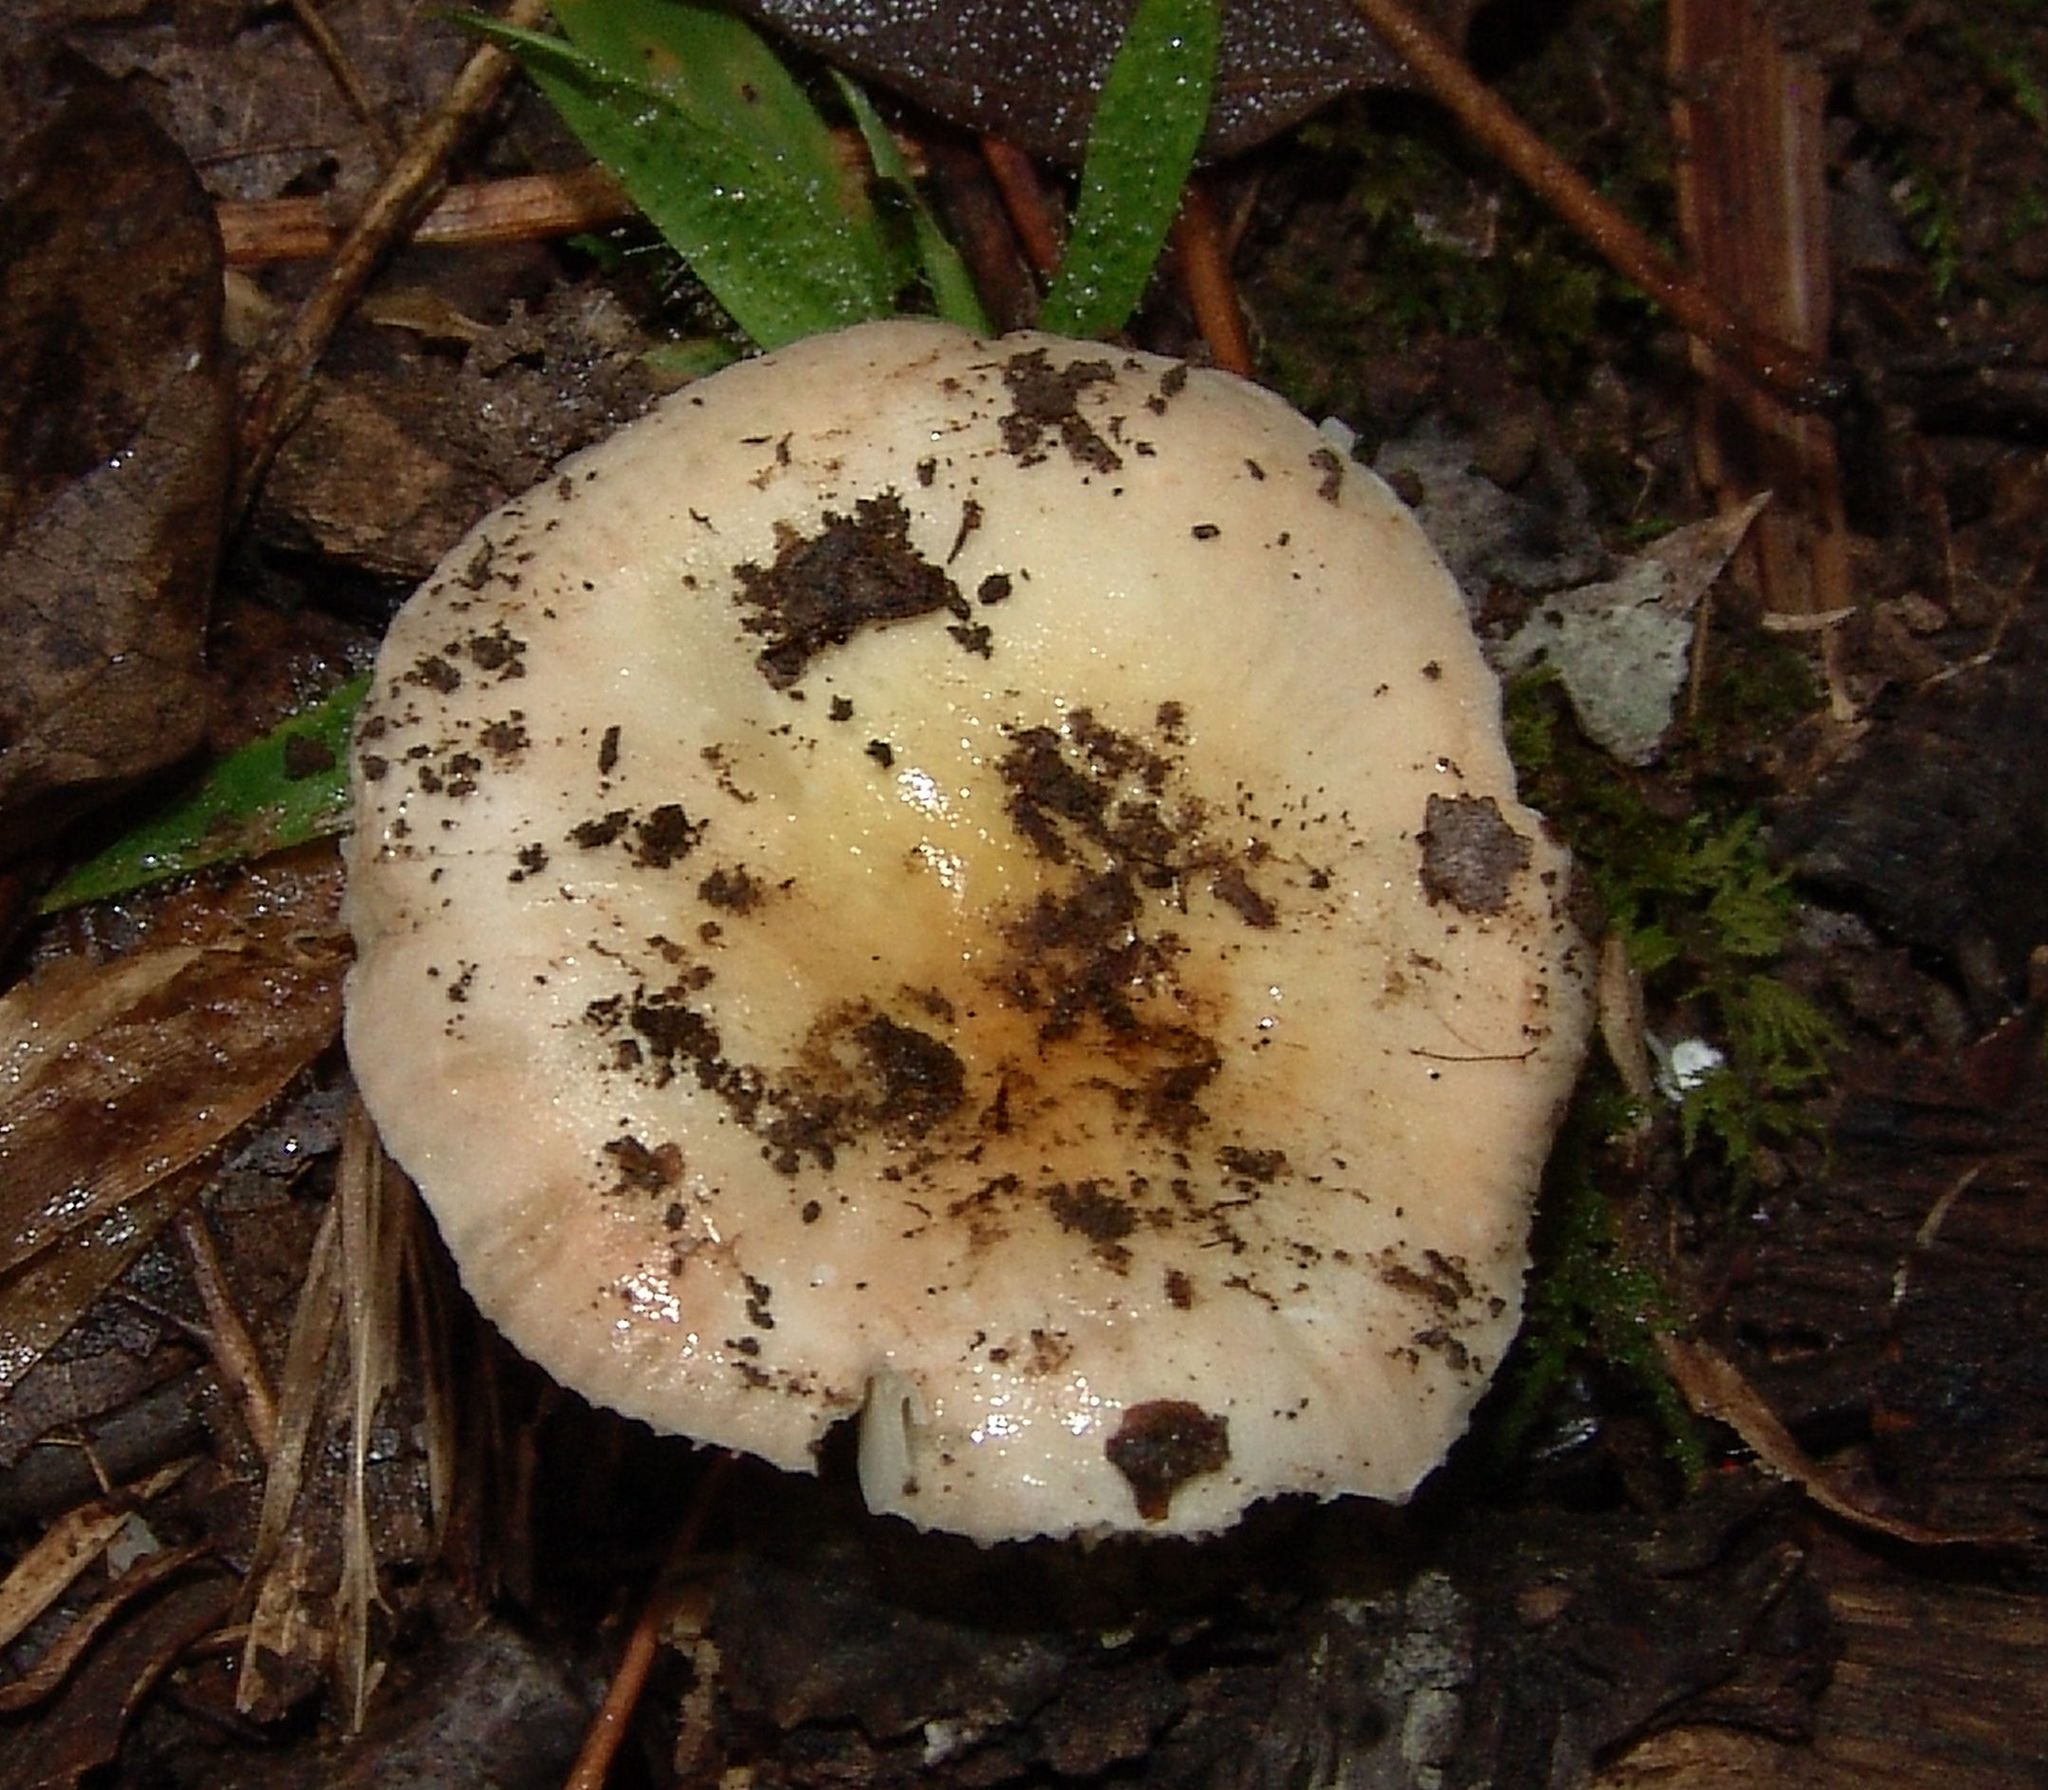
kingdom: Fungi
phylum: Basidiomycota
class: Agaricomycetes
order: Russulales
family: Russulaceae
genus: Russula
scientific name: Russula
